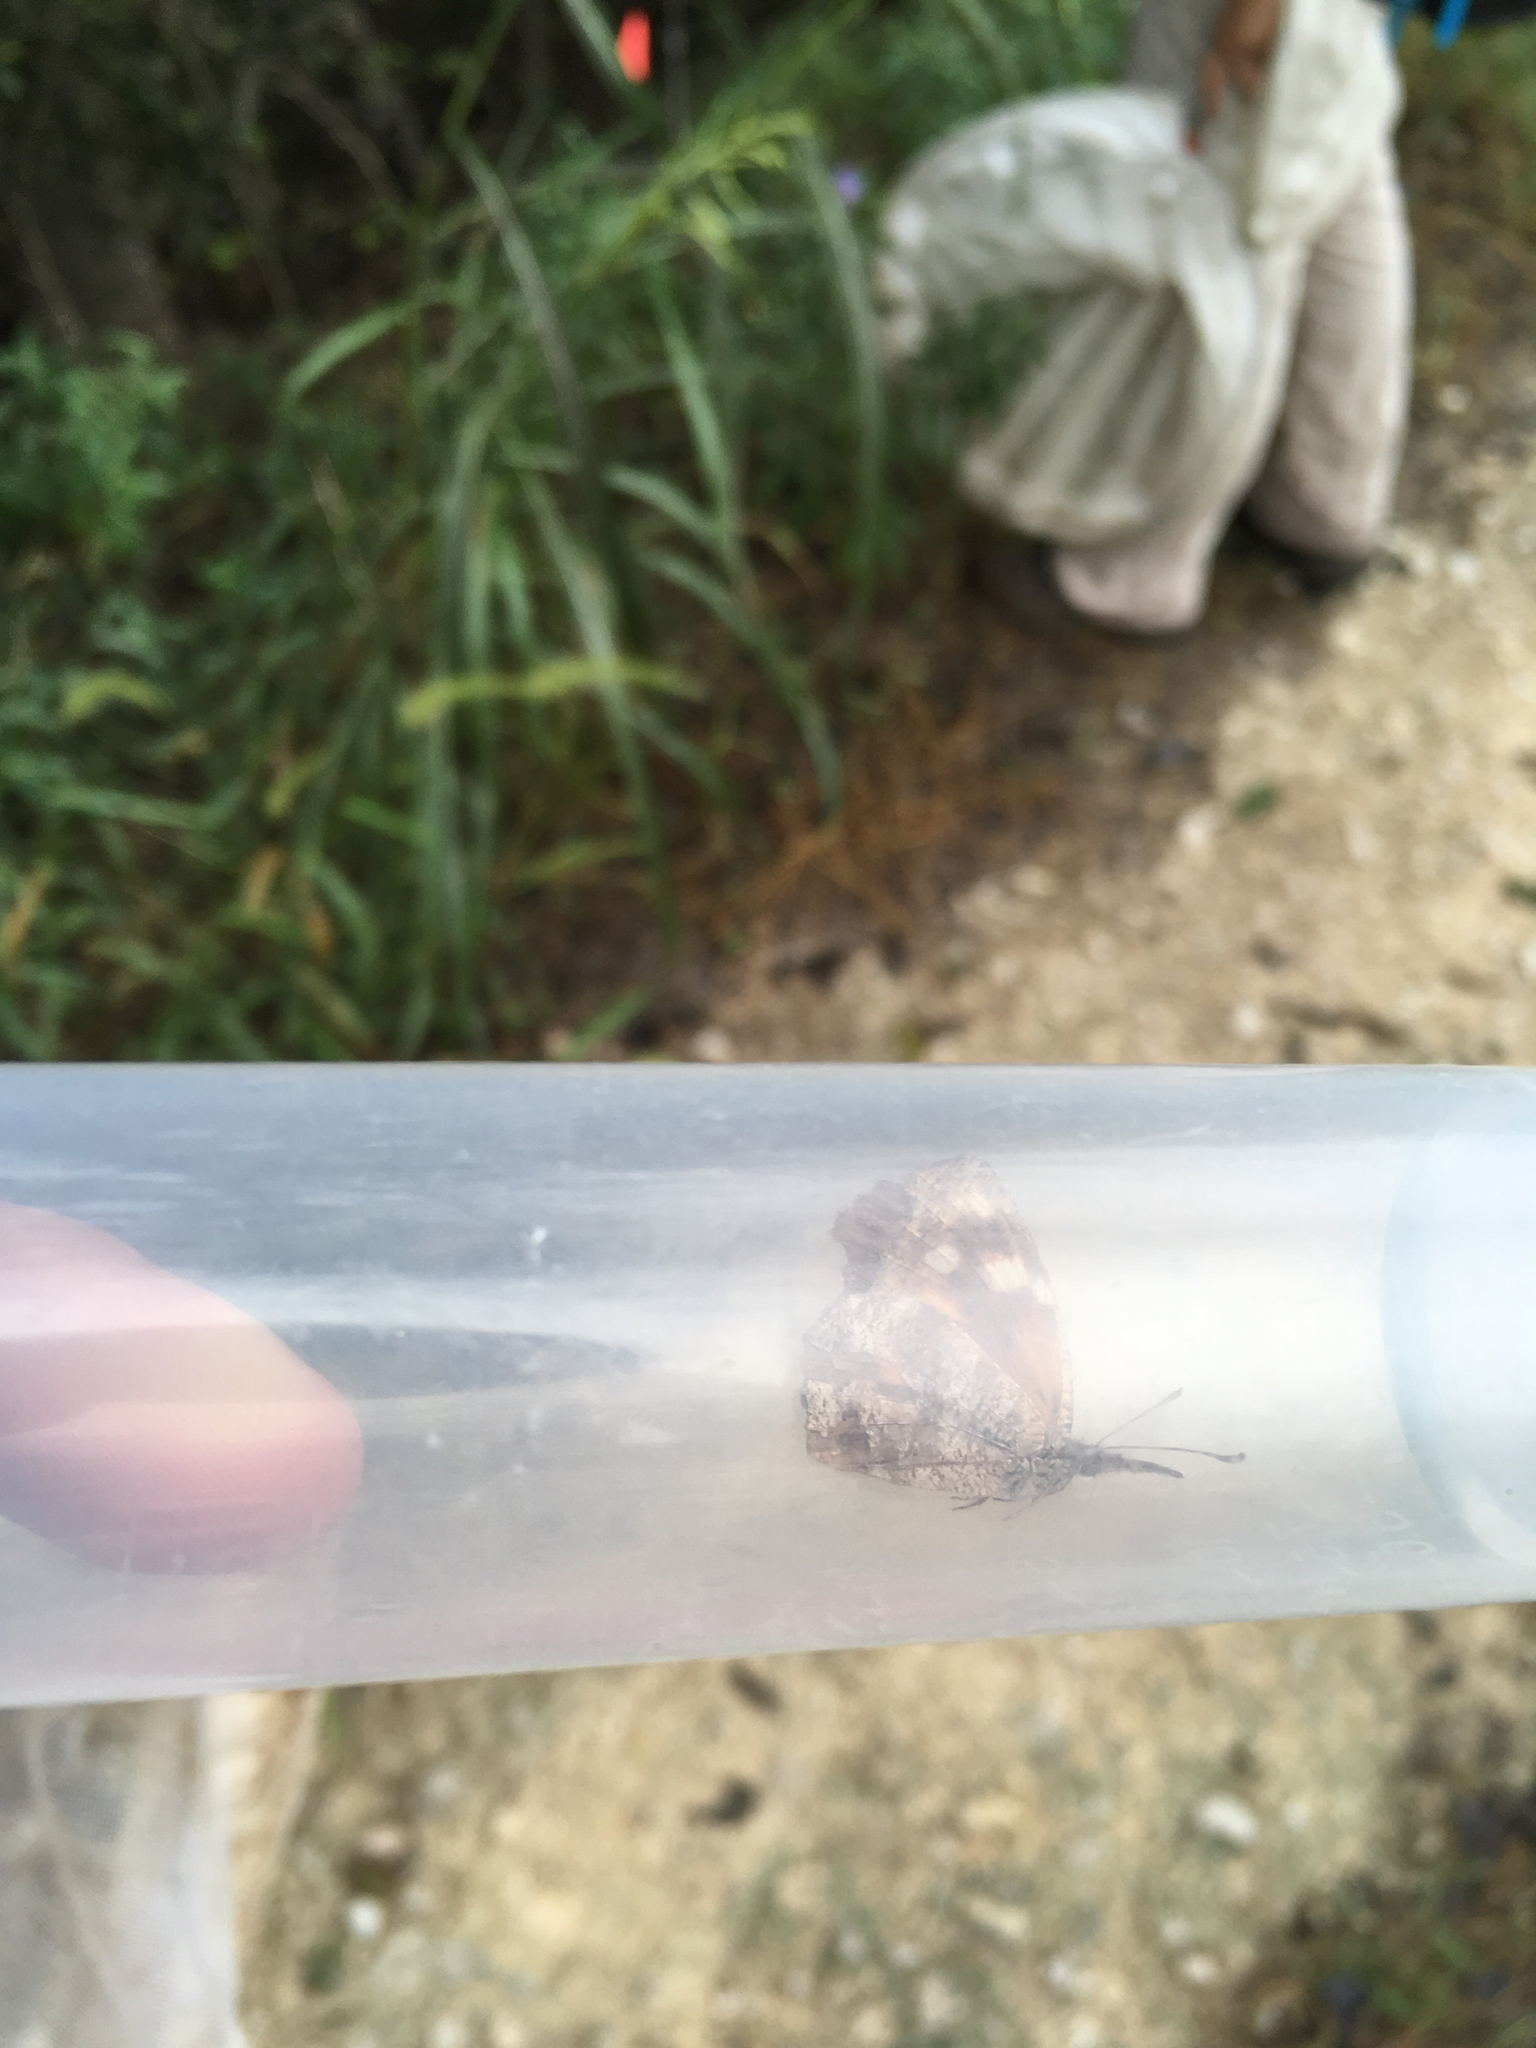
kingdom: Animalia
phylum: Arthropoda
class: Insecta
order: Lepidoptera
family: Nymphalidae
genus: Libytheana
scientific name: Libytheana carinenta
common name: American snout
